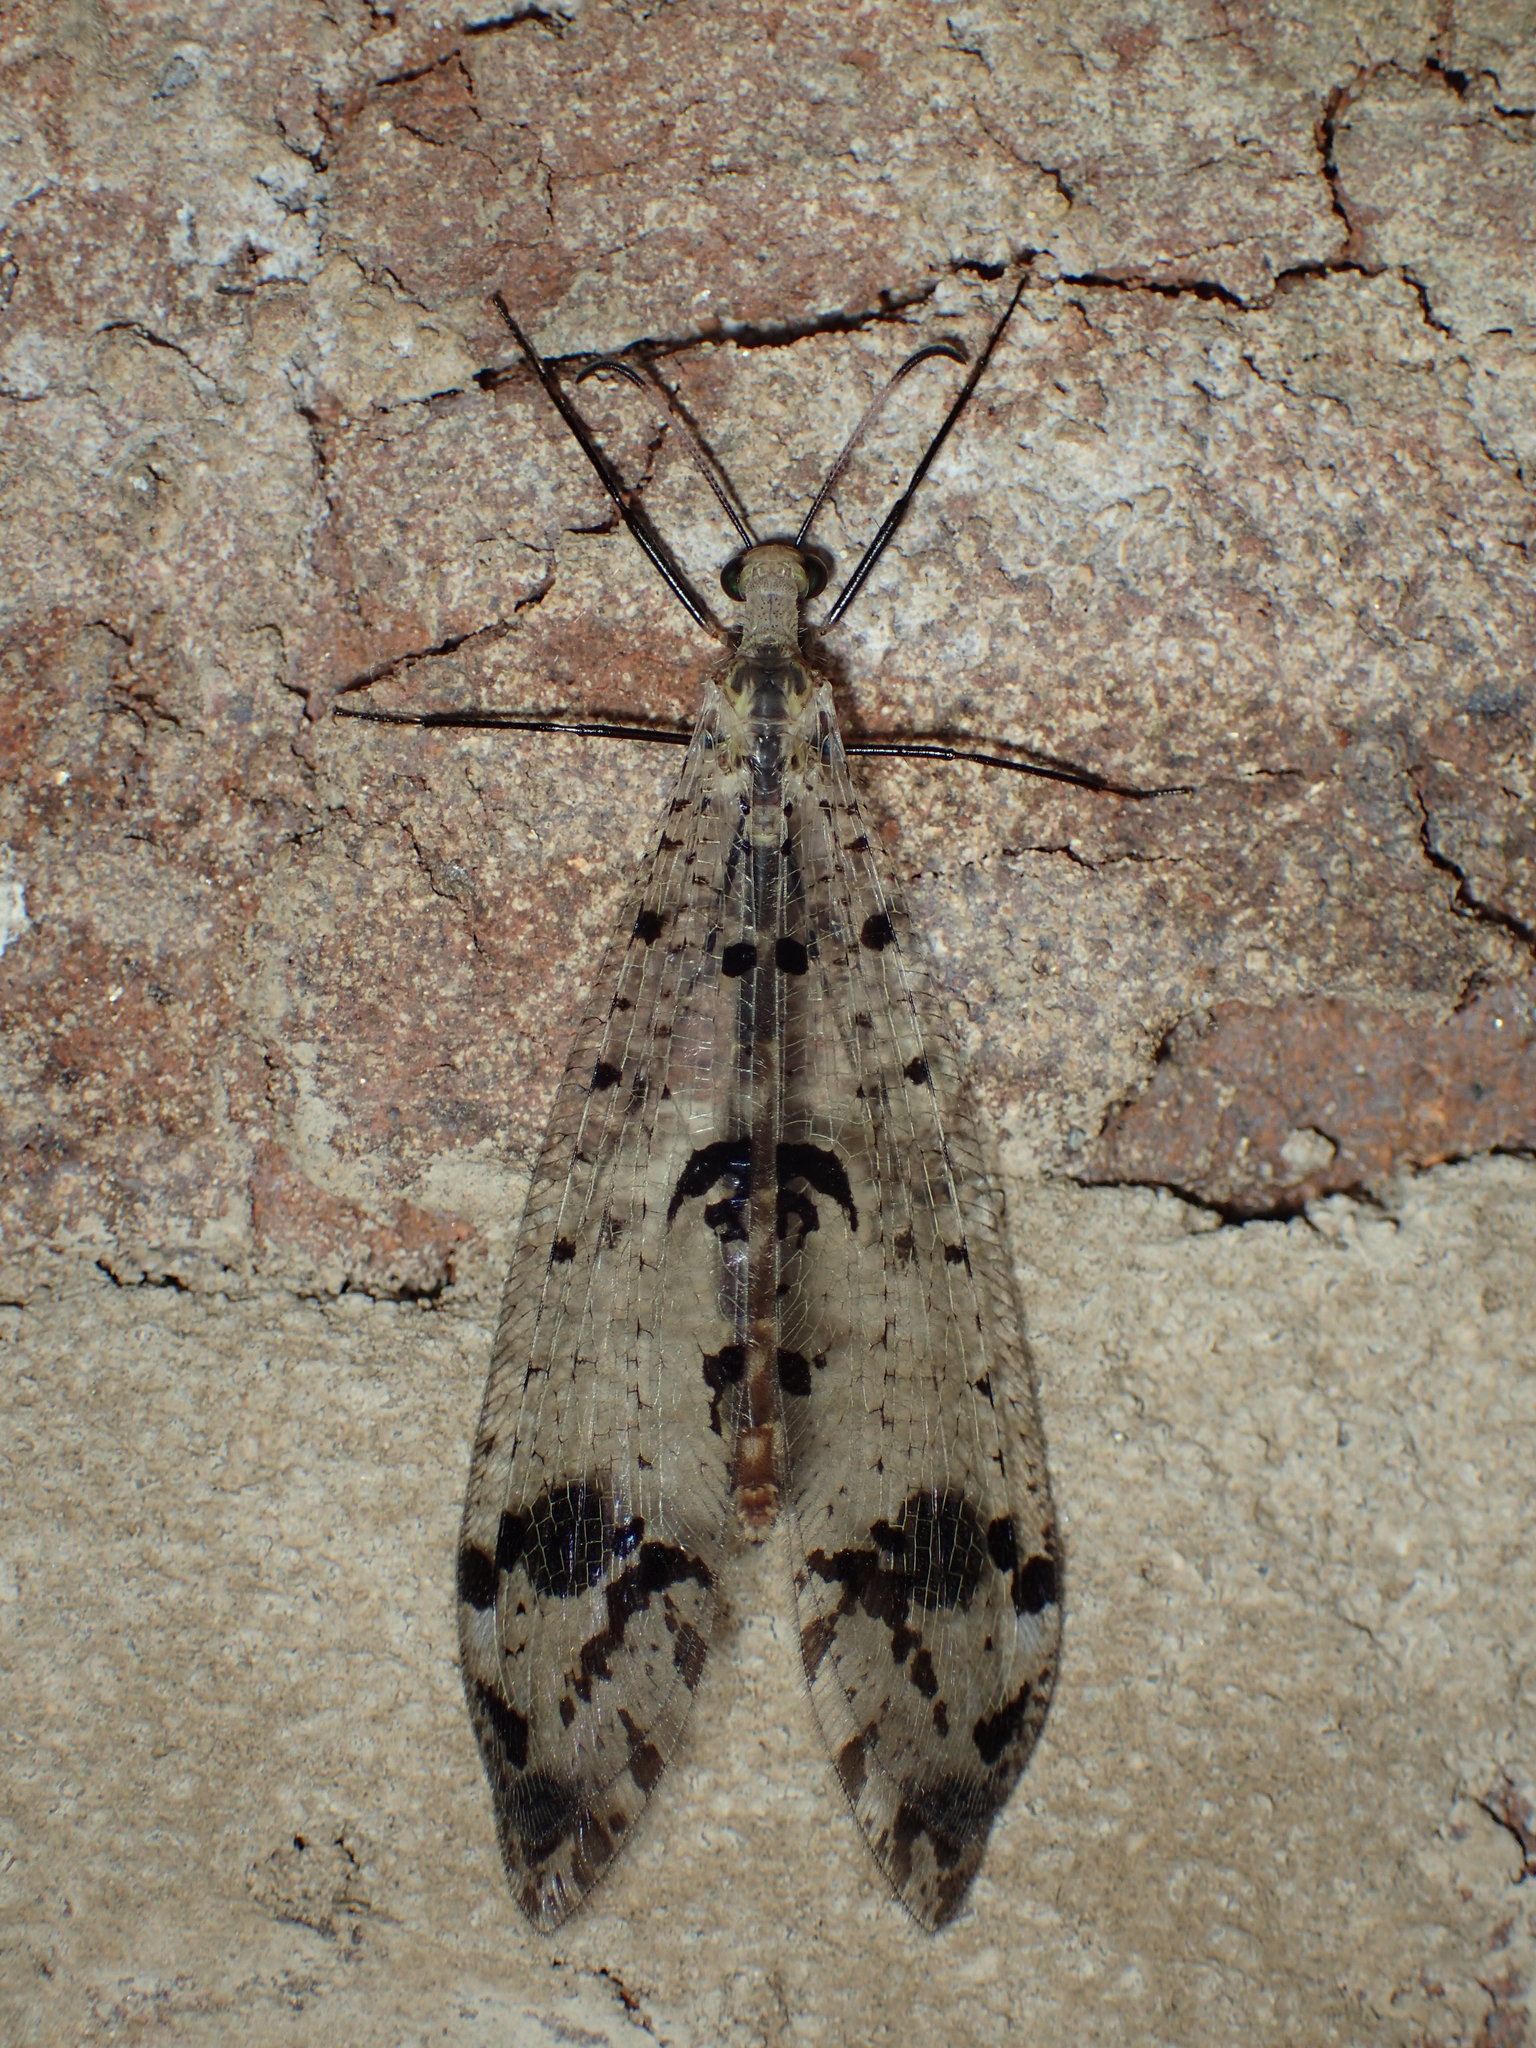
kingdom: Animalia
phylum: Arthropoda
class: Insecta
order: Neuroptera
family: Myrmeleontidae
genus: Dendroleon
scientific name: Dendroleon obsoletus
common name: Eastern spotted-winged antlion
